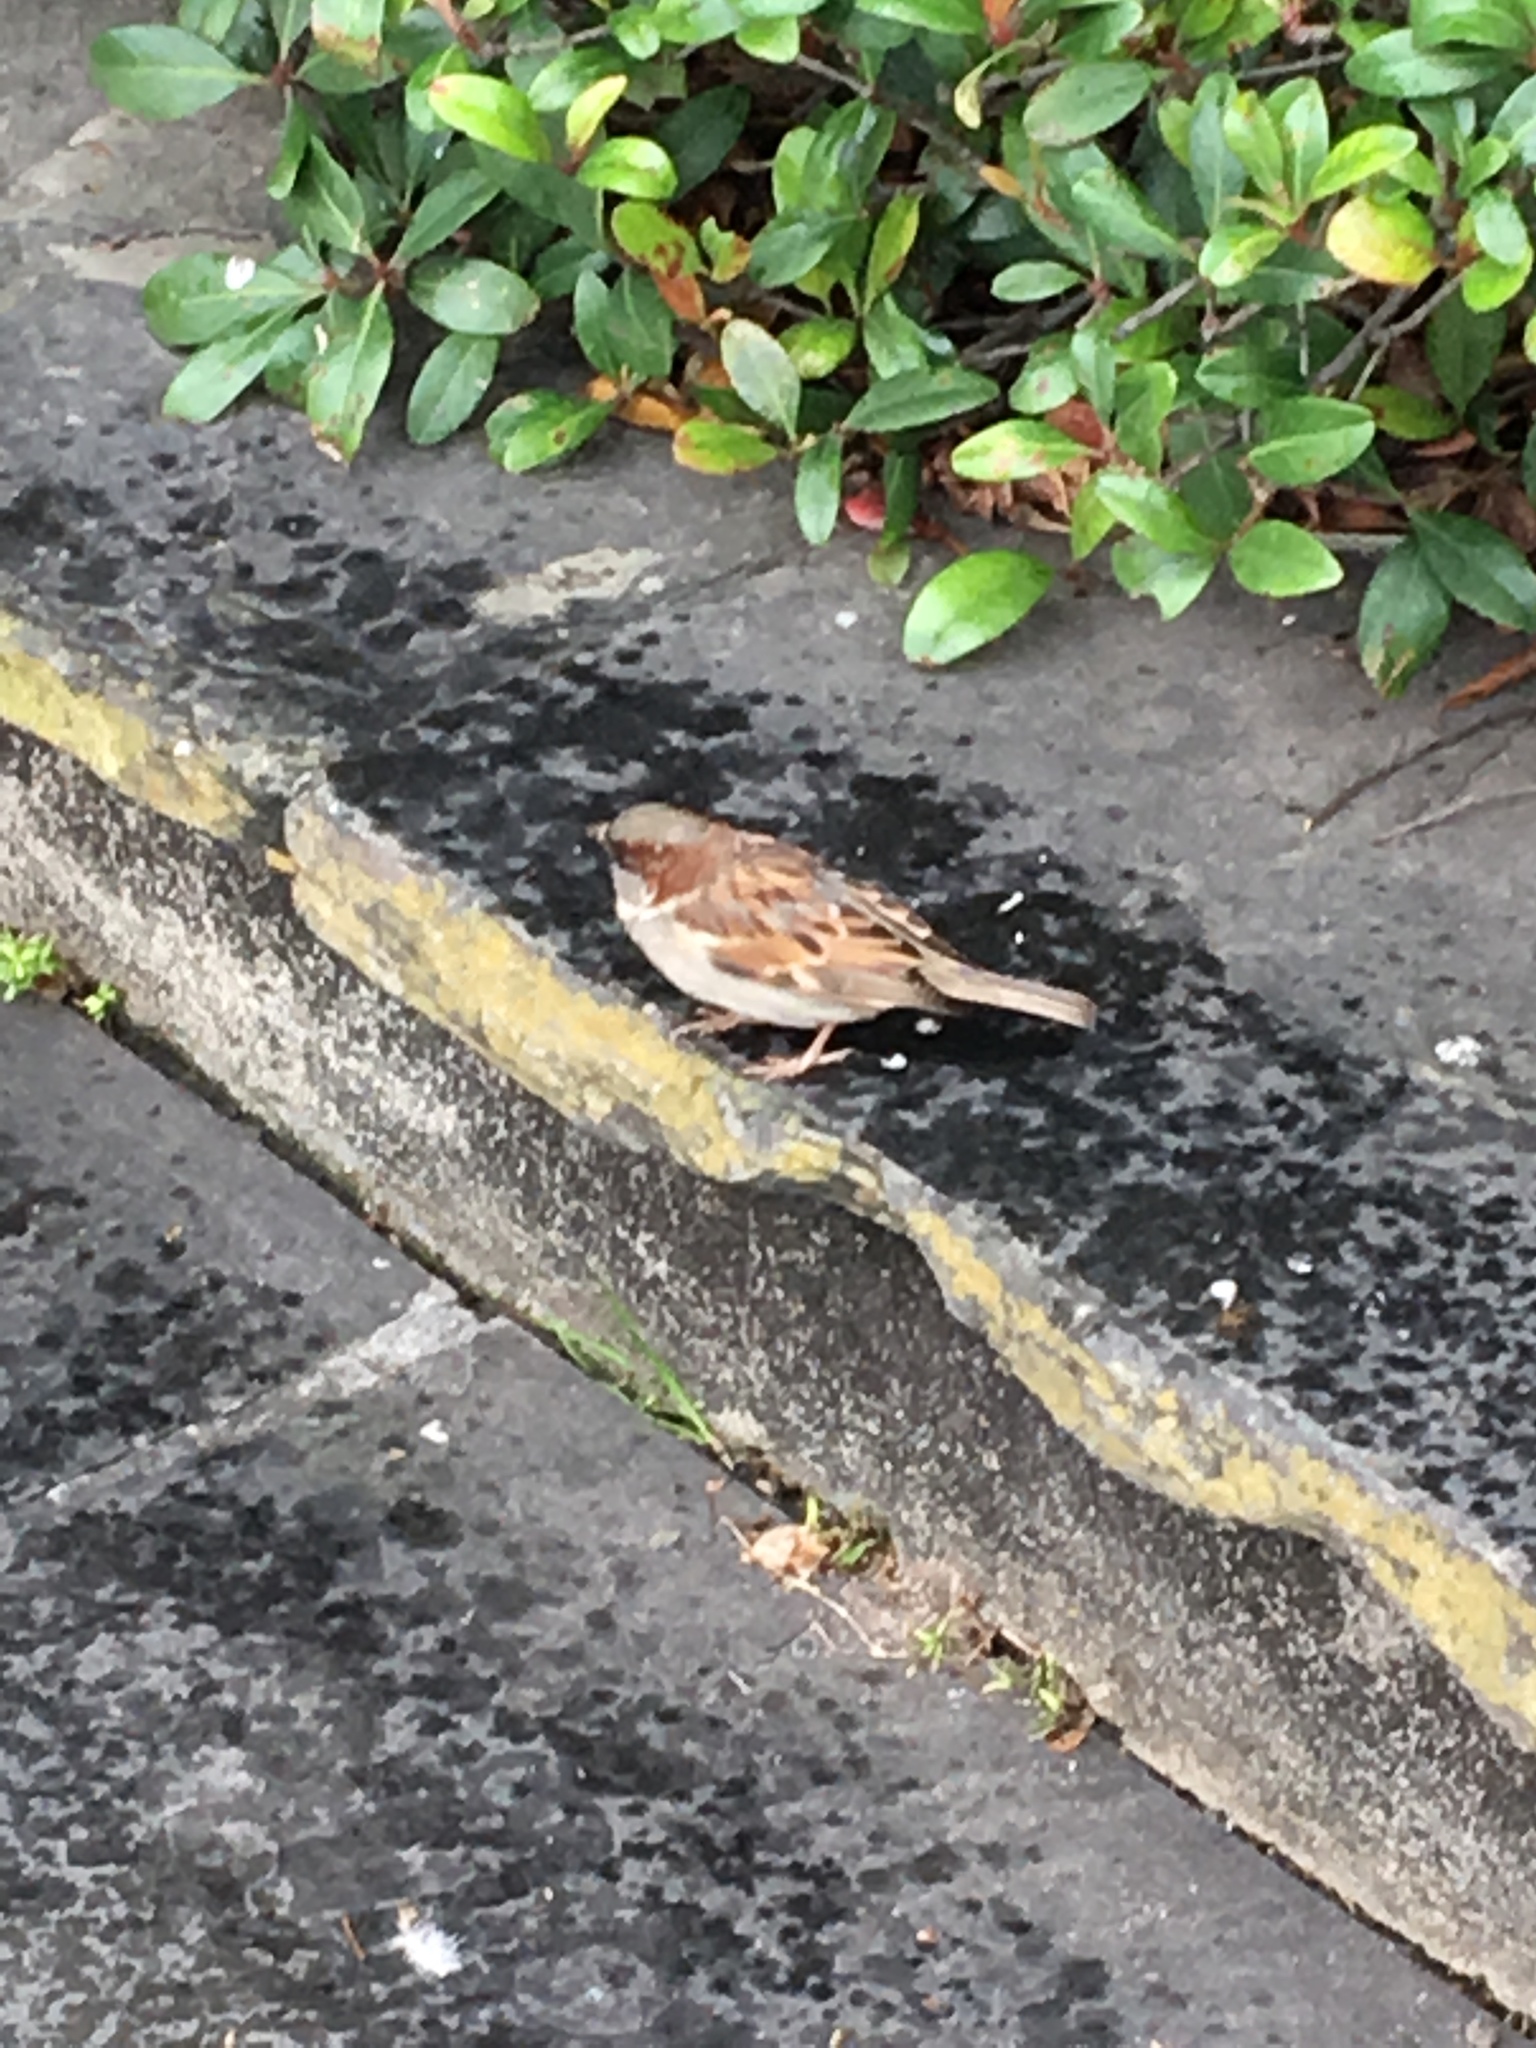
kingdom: Animalia
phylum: Chordata
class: Aves
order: Passeriformes
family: Passeridae
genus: Passer
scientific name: Passer domesticus
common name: House sparrow
